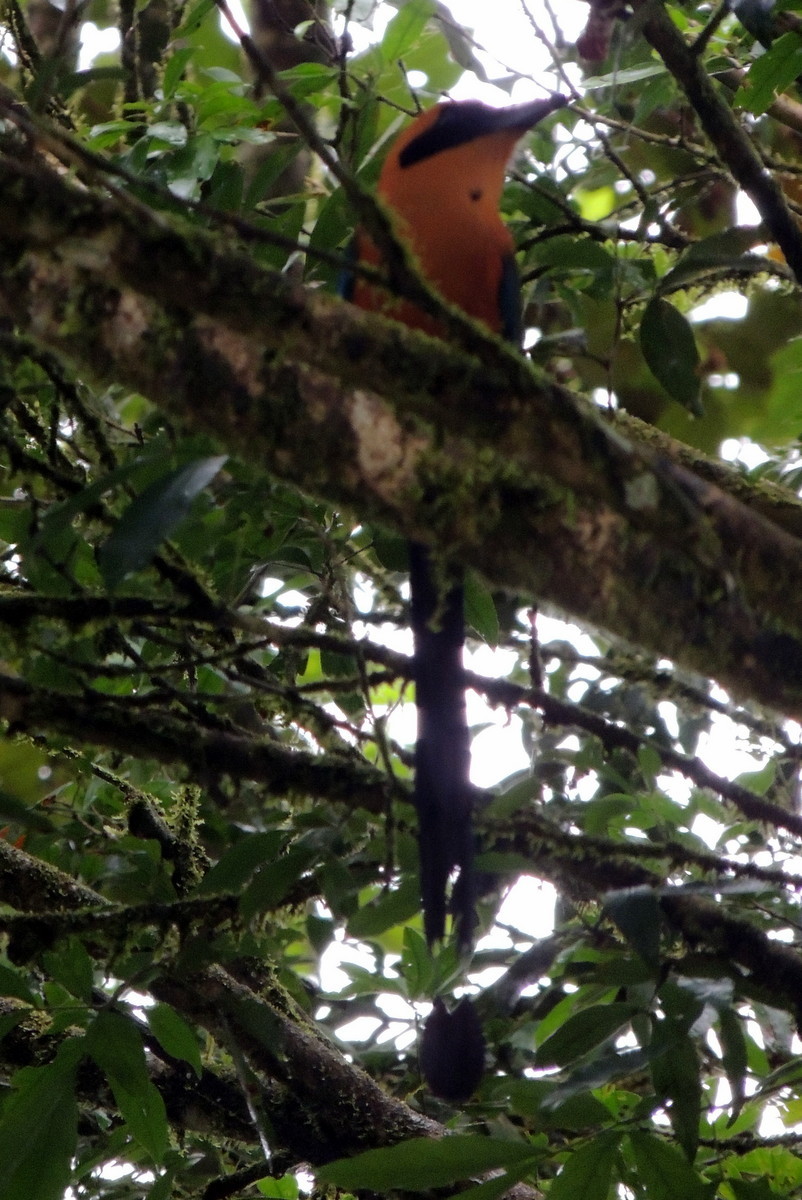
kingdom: Animalia
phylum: Chordata
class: Aves
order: Coraciiformes
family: Momotidae
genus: Baryphthengus
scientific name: Baryphthengus martii
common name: Rufous motmot
